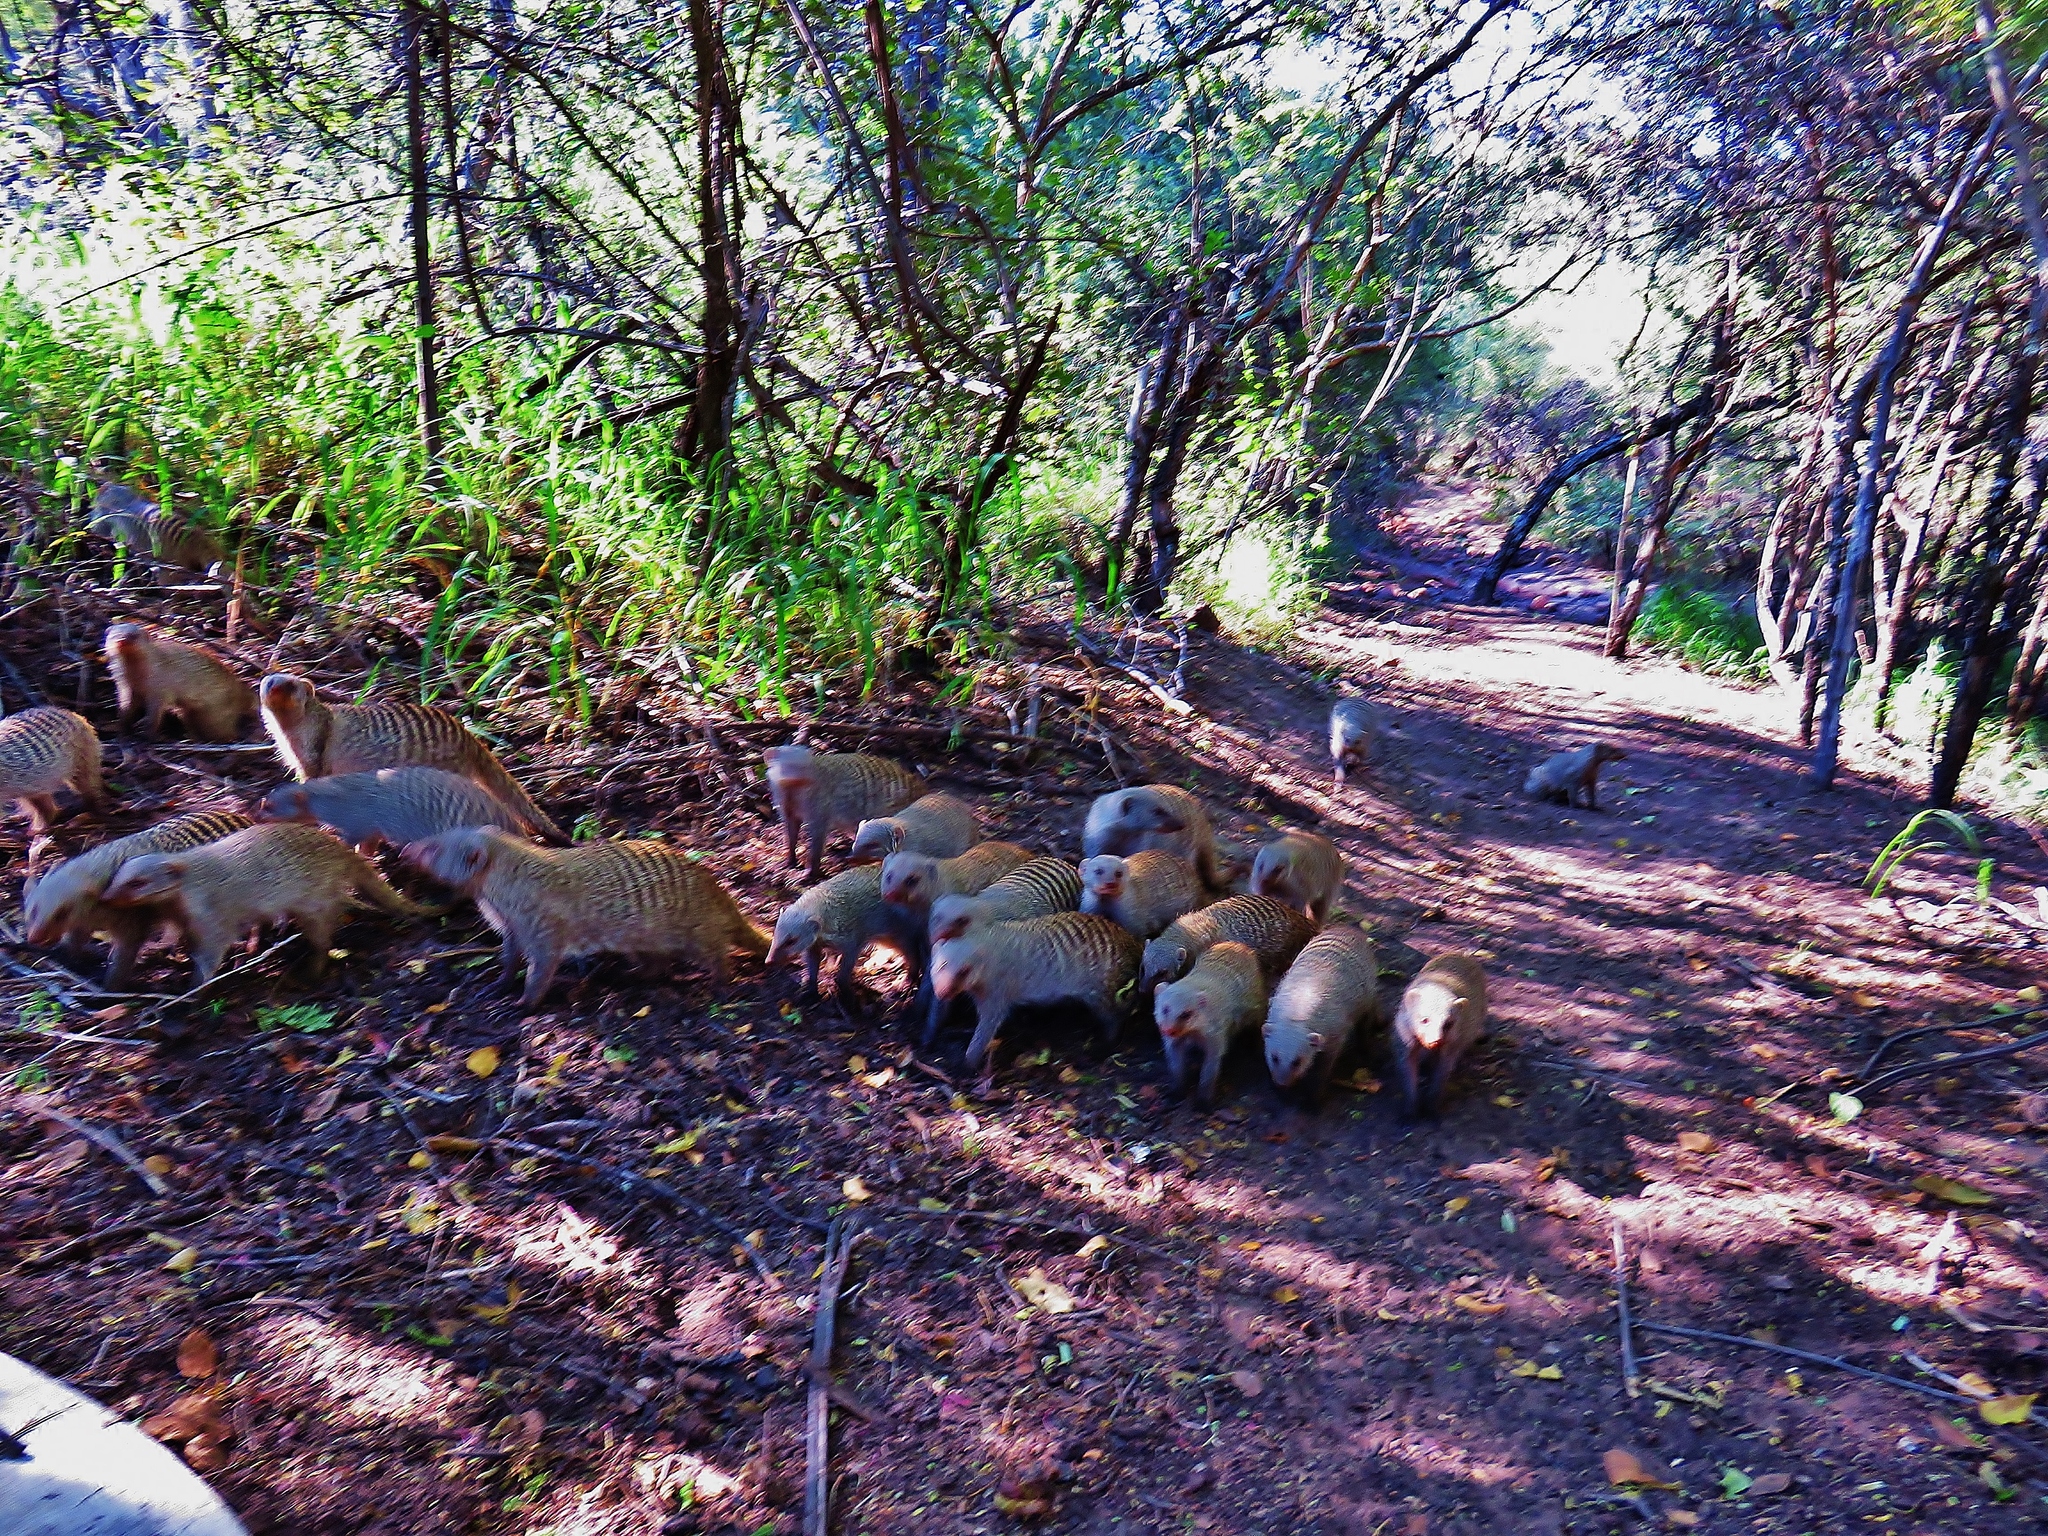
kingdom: Animalia
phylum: Chordata
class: Mammalia
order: Carnivora
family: Herpestidae
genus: Mungos
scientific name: Mungos mungo
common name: Banded mongoose
